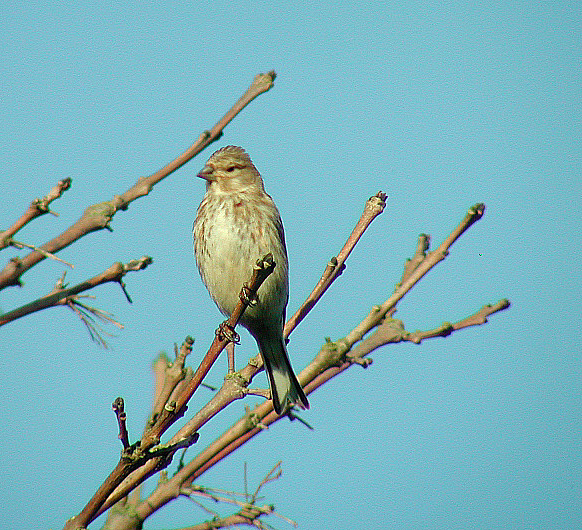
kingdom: Animalia
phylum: Chordata
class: Aves
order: Passeriformes
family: Fringillidae
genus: Linaria
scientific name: Linaria cannabina
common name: Common linnet
